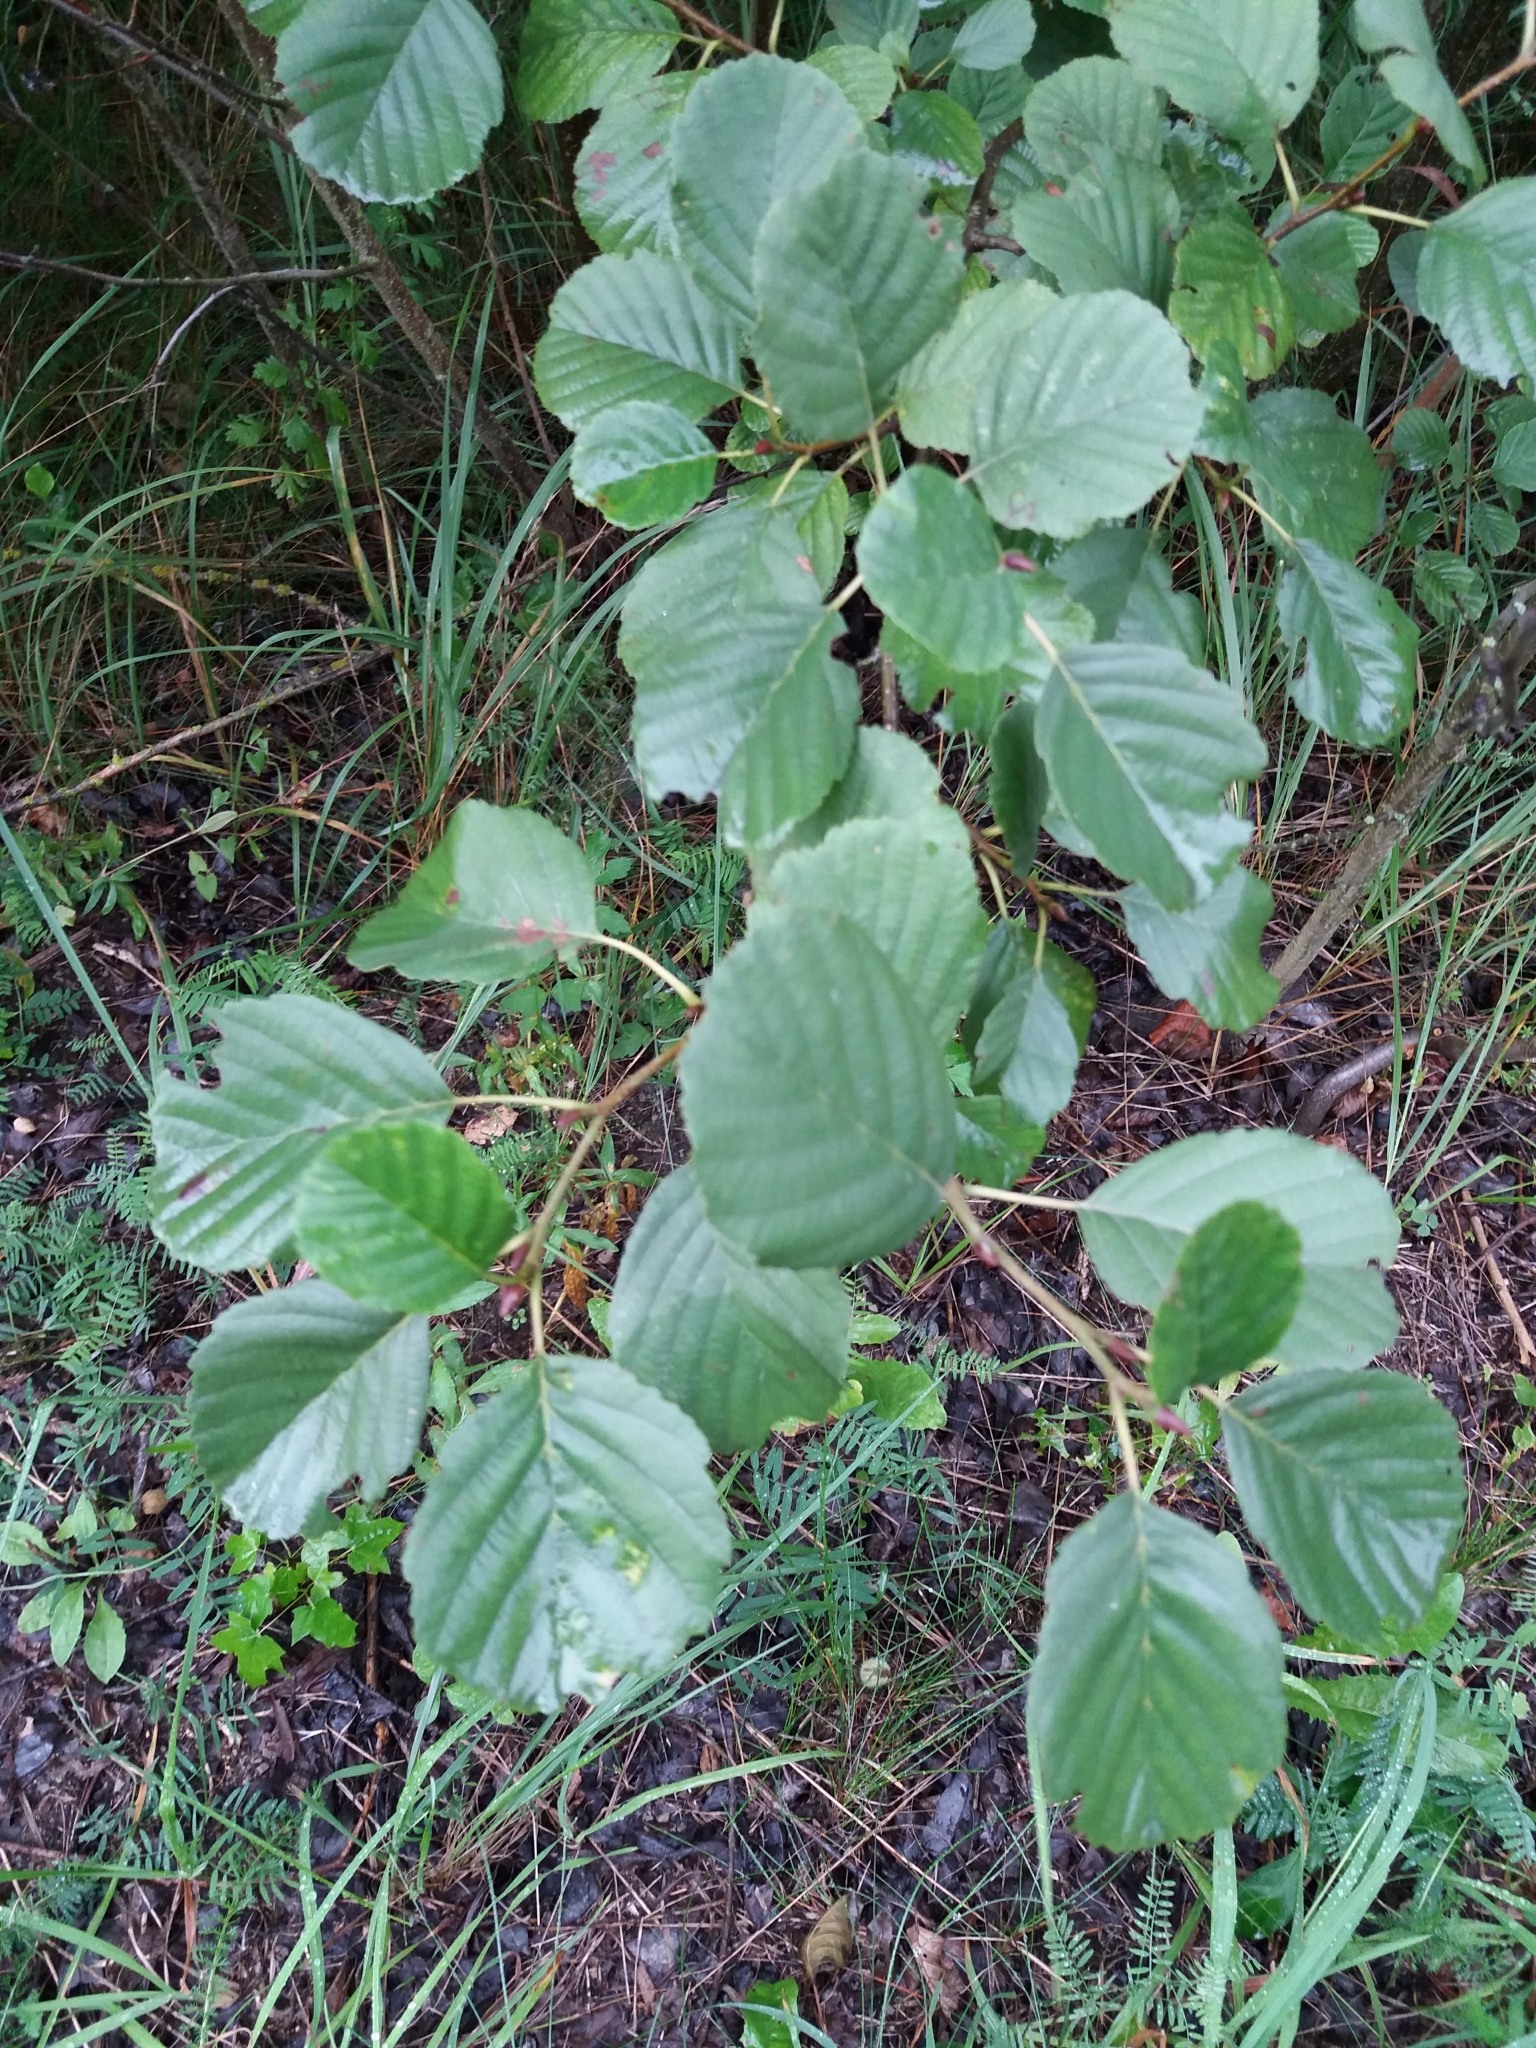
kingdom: Plantae
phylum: Tracheophyta
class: Magnoliopsida
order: Fagales
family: Betulaceae
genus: Alnus
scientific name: Alnus glutinosa
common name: Black alder
